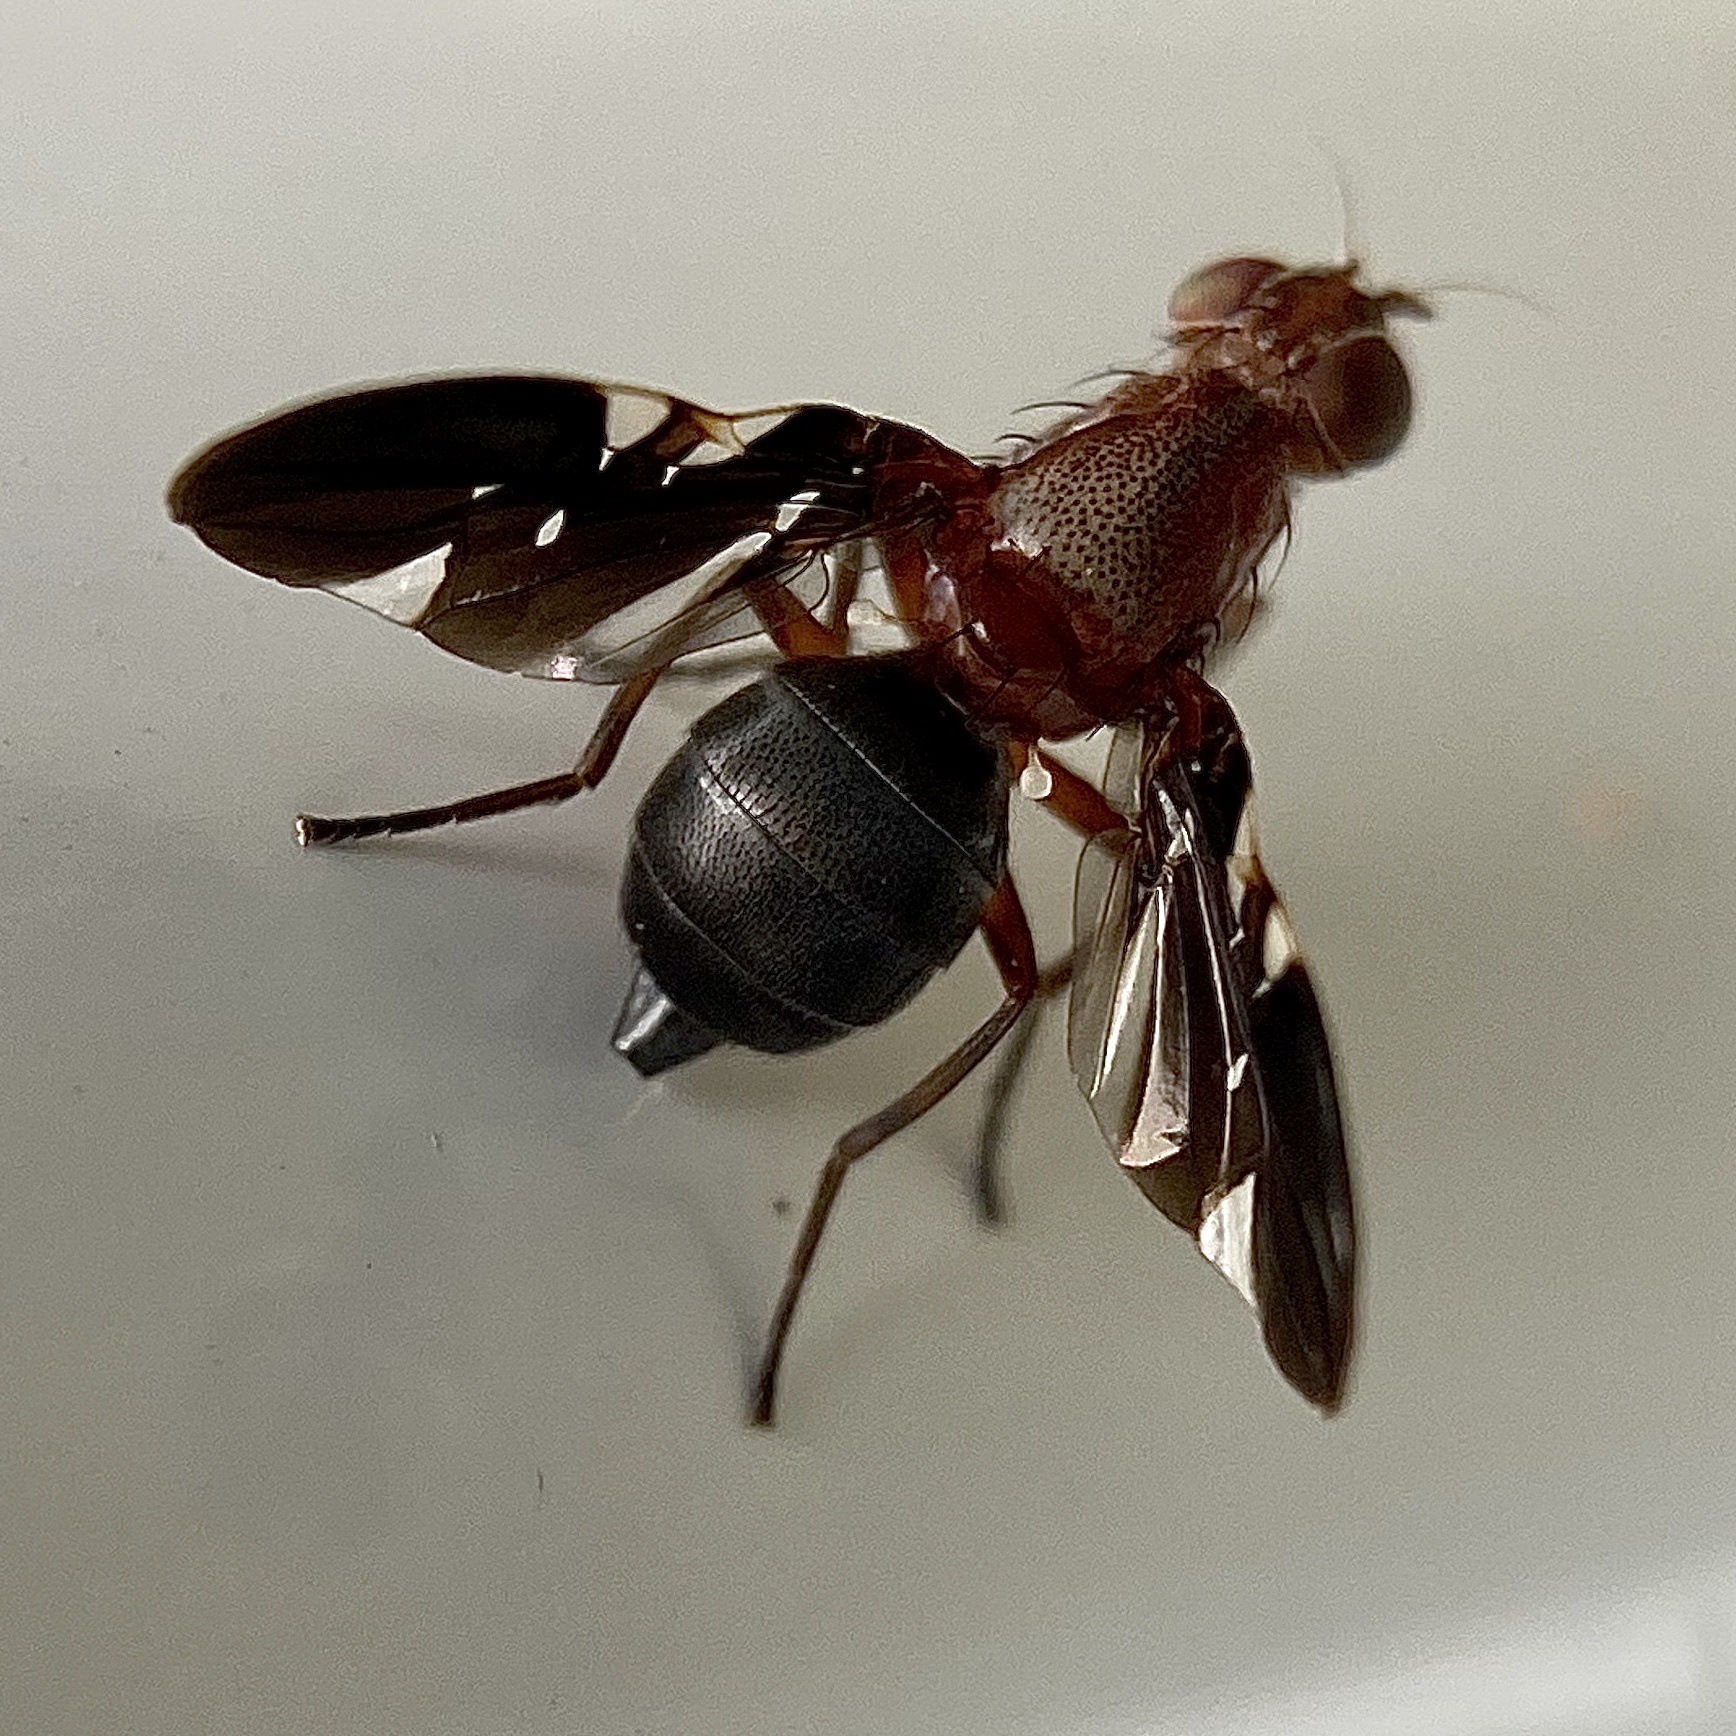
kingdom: Animalia
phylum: Arthropoda
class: Insecta
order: Diptera
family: Ulidiidae
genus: Delphinia
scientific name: Delphinia picta
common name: Common picture-winged fly
